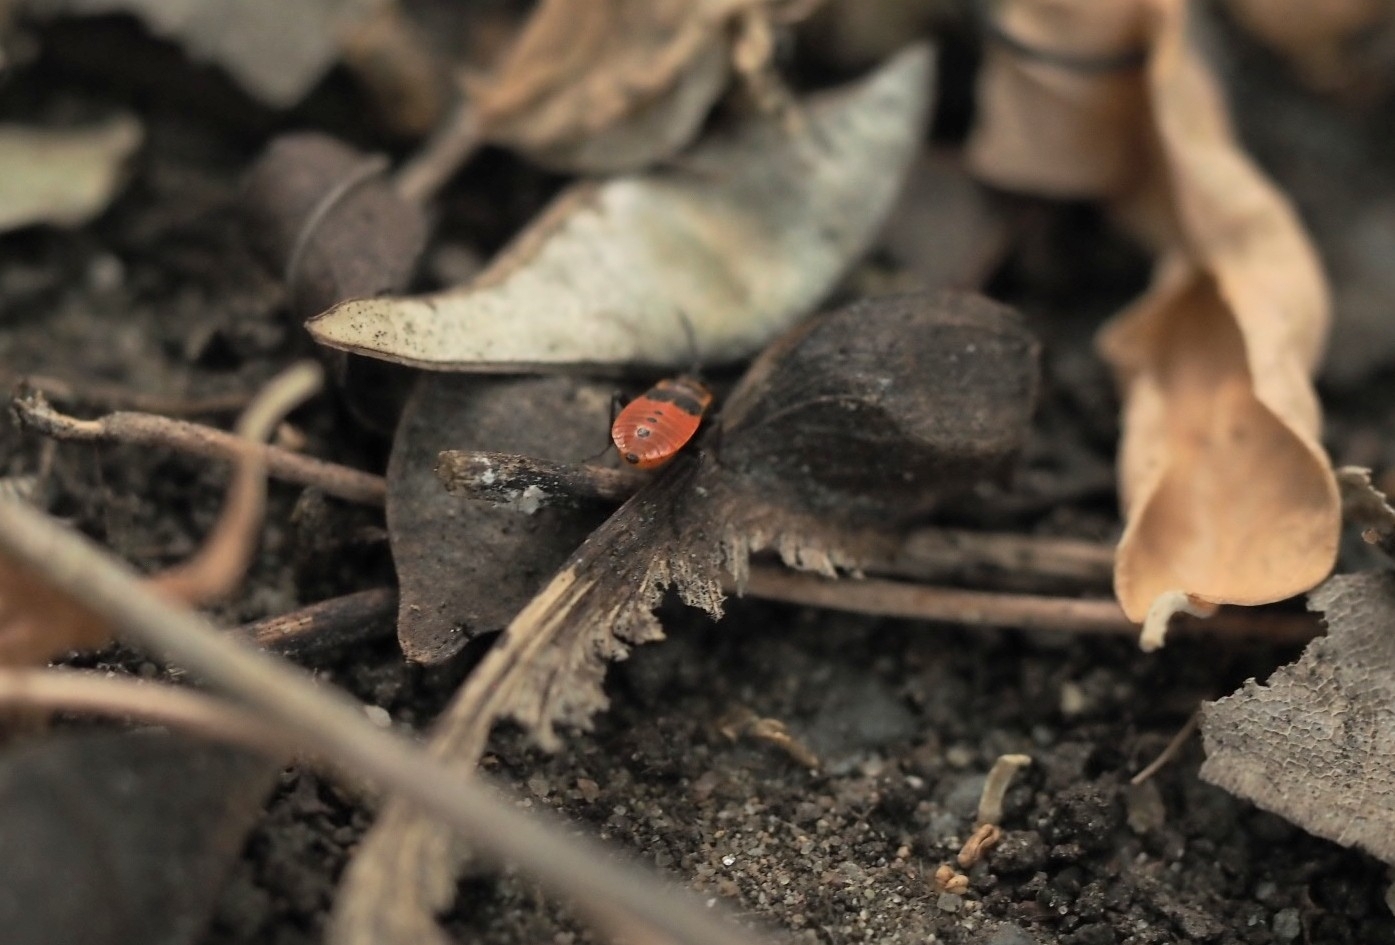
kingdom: Animalia
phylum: Arthropoda
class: Insecta
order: Hemiptera
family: Pyrrhocoridae
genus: Pyrrhocoris
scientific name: Pyrrhocoris apterus
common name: Firebug
